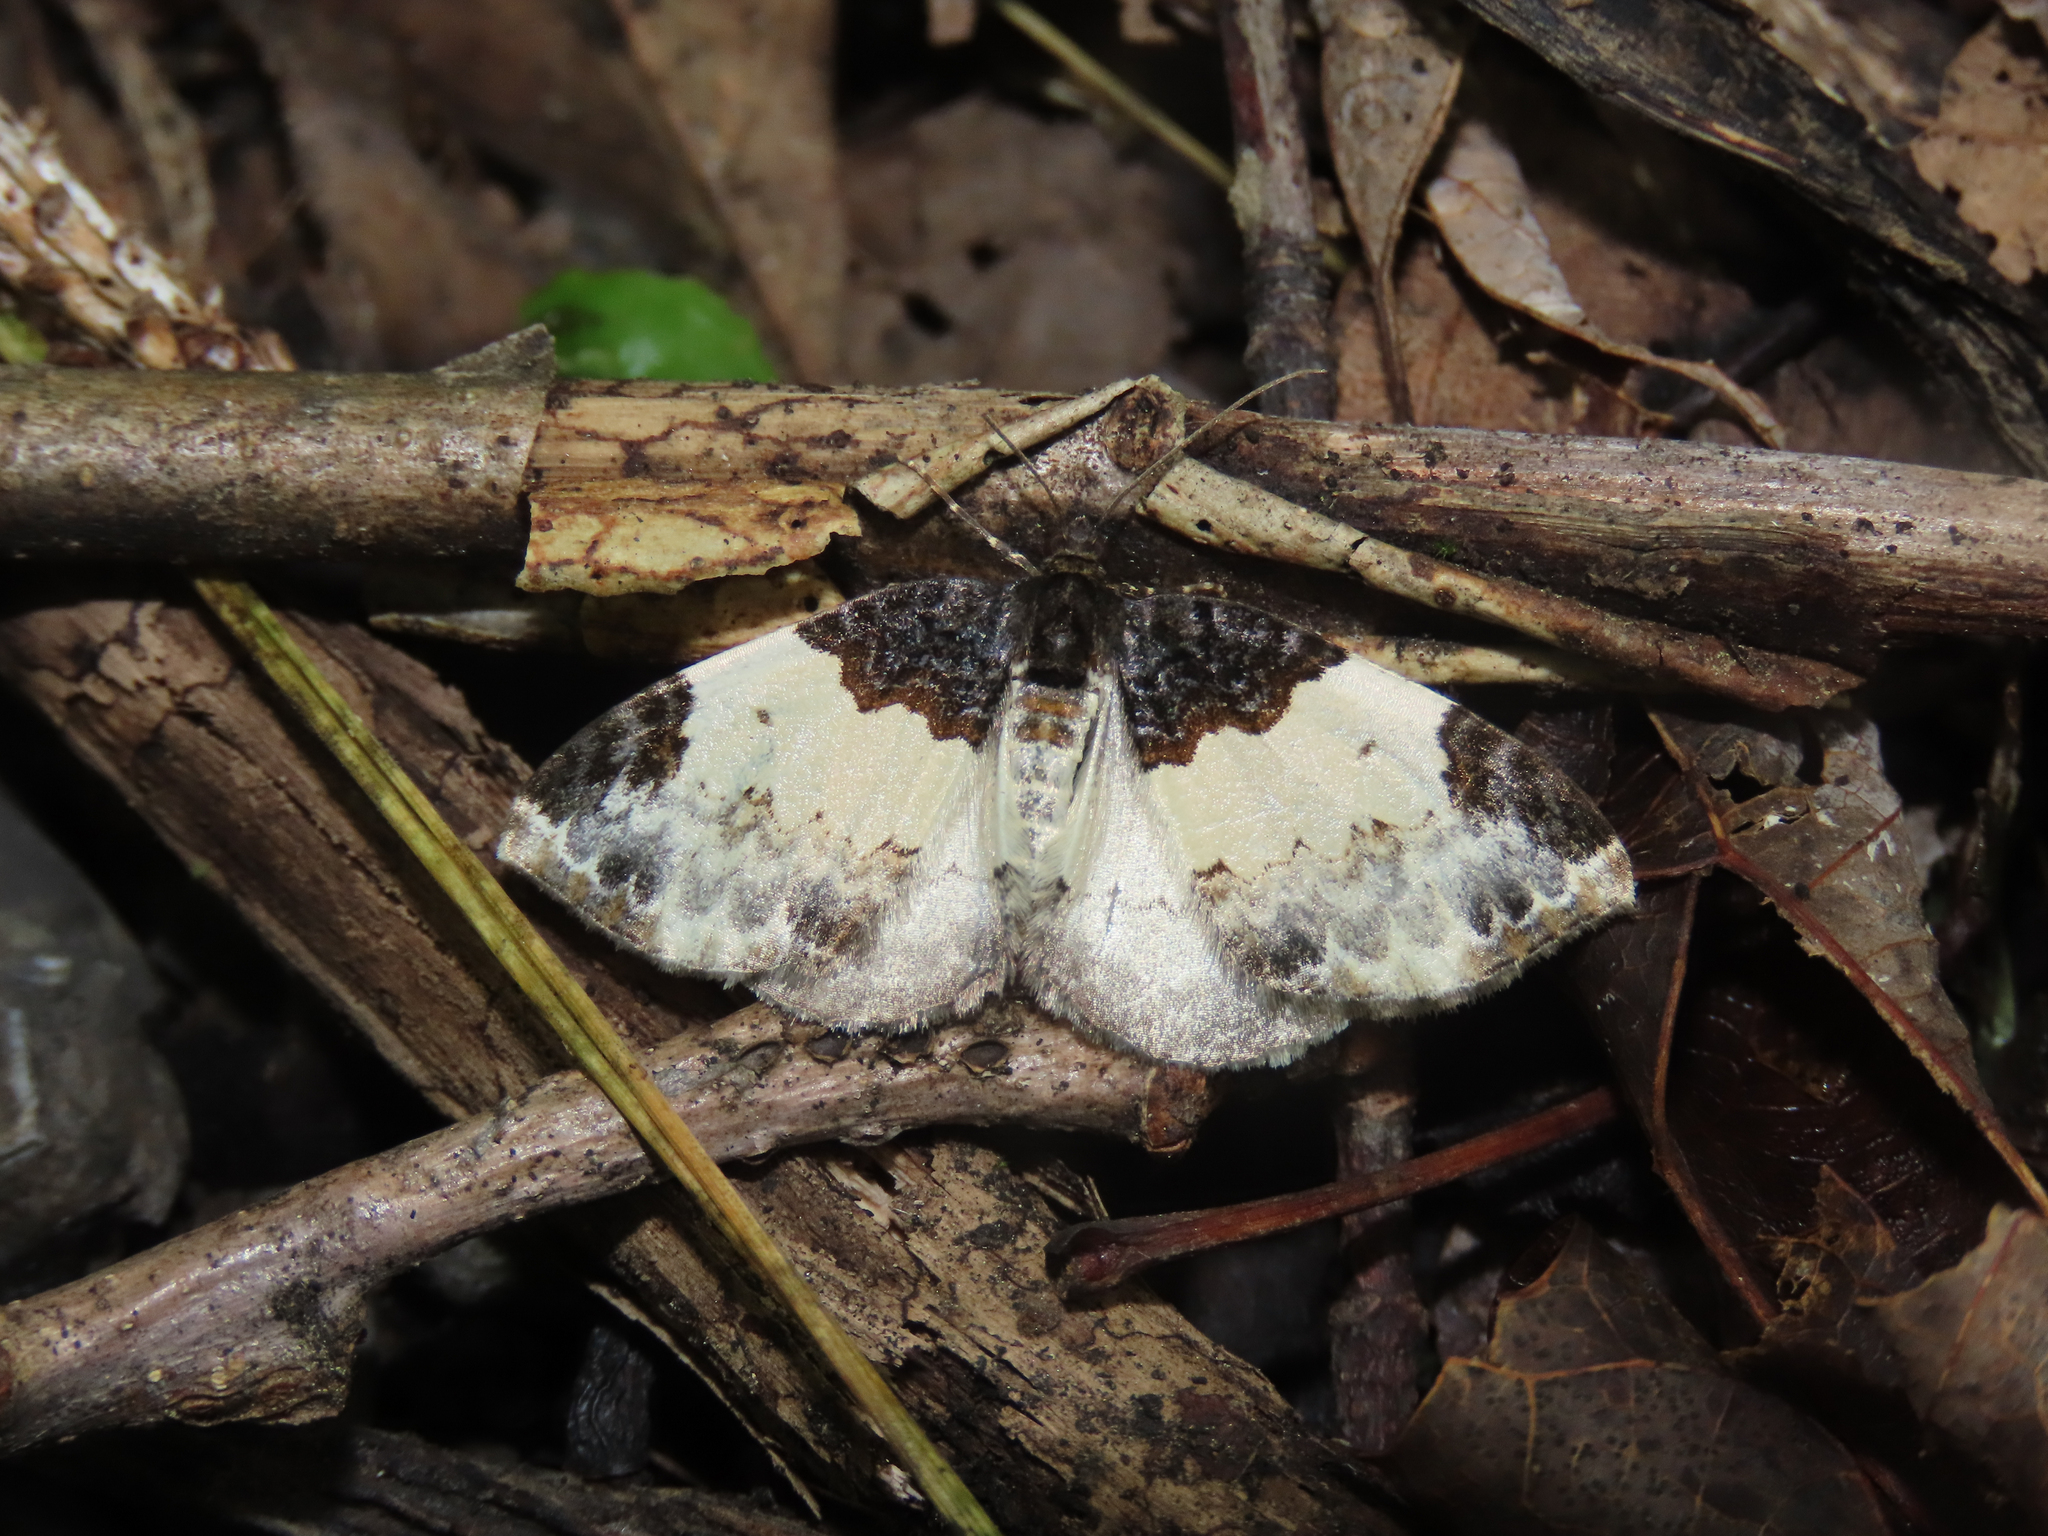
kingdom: Animalia
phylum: Arthropoda
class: Insecta
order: Lepidoptera
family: Geometridae
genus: Mesoleuca
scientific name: Mesoleuca ruficillata
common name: White-ribboned carpet moth
